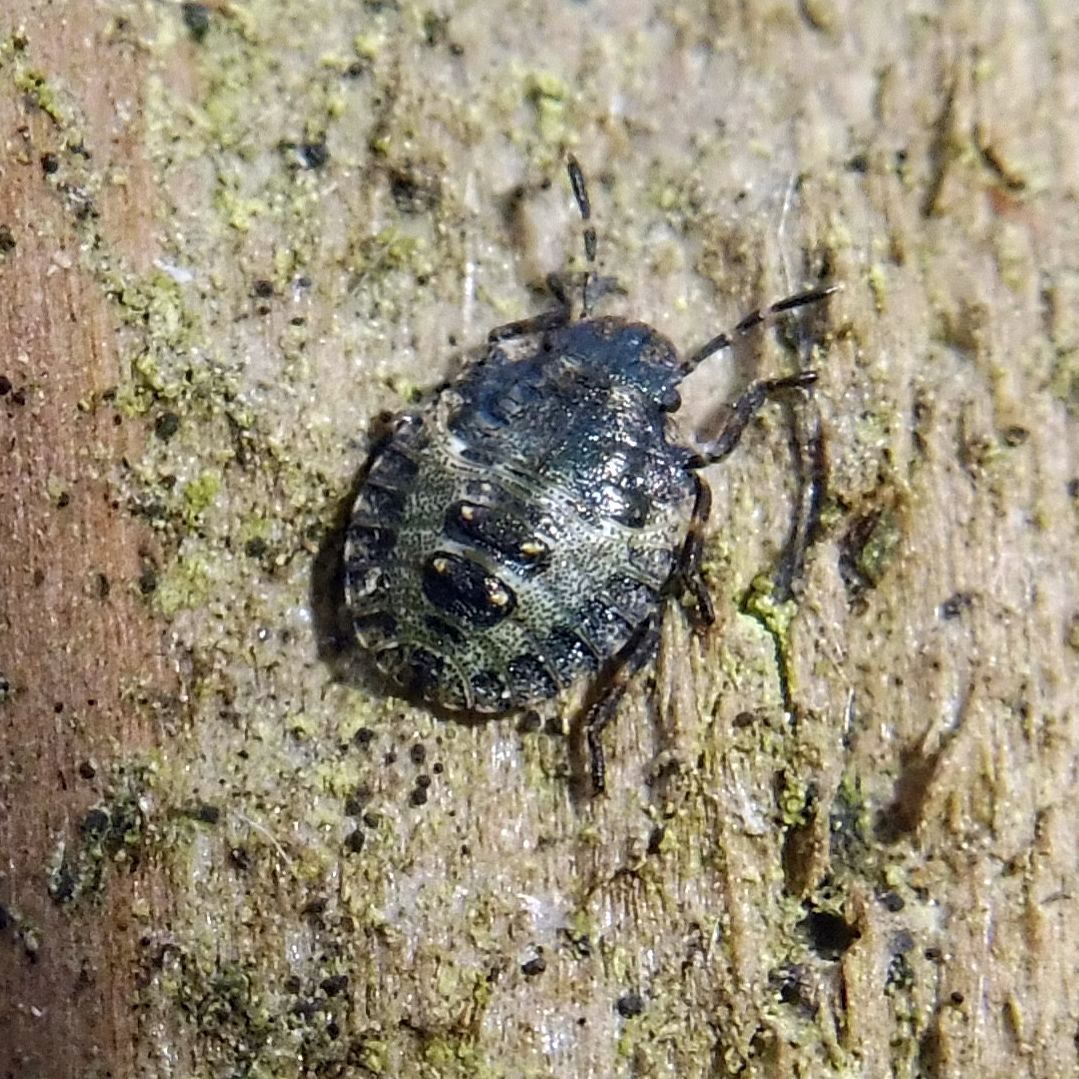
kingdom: Animalia
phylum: Arthropoda
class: Insecta
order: Hemiptera
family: Pentatomidae
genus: Pentatoma
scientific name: Pentatoma rufipes
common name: Forest bug
